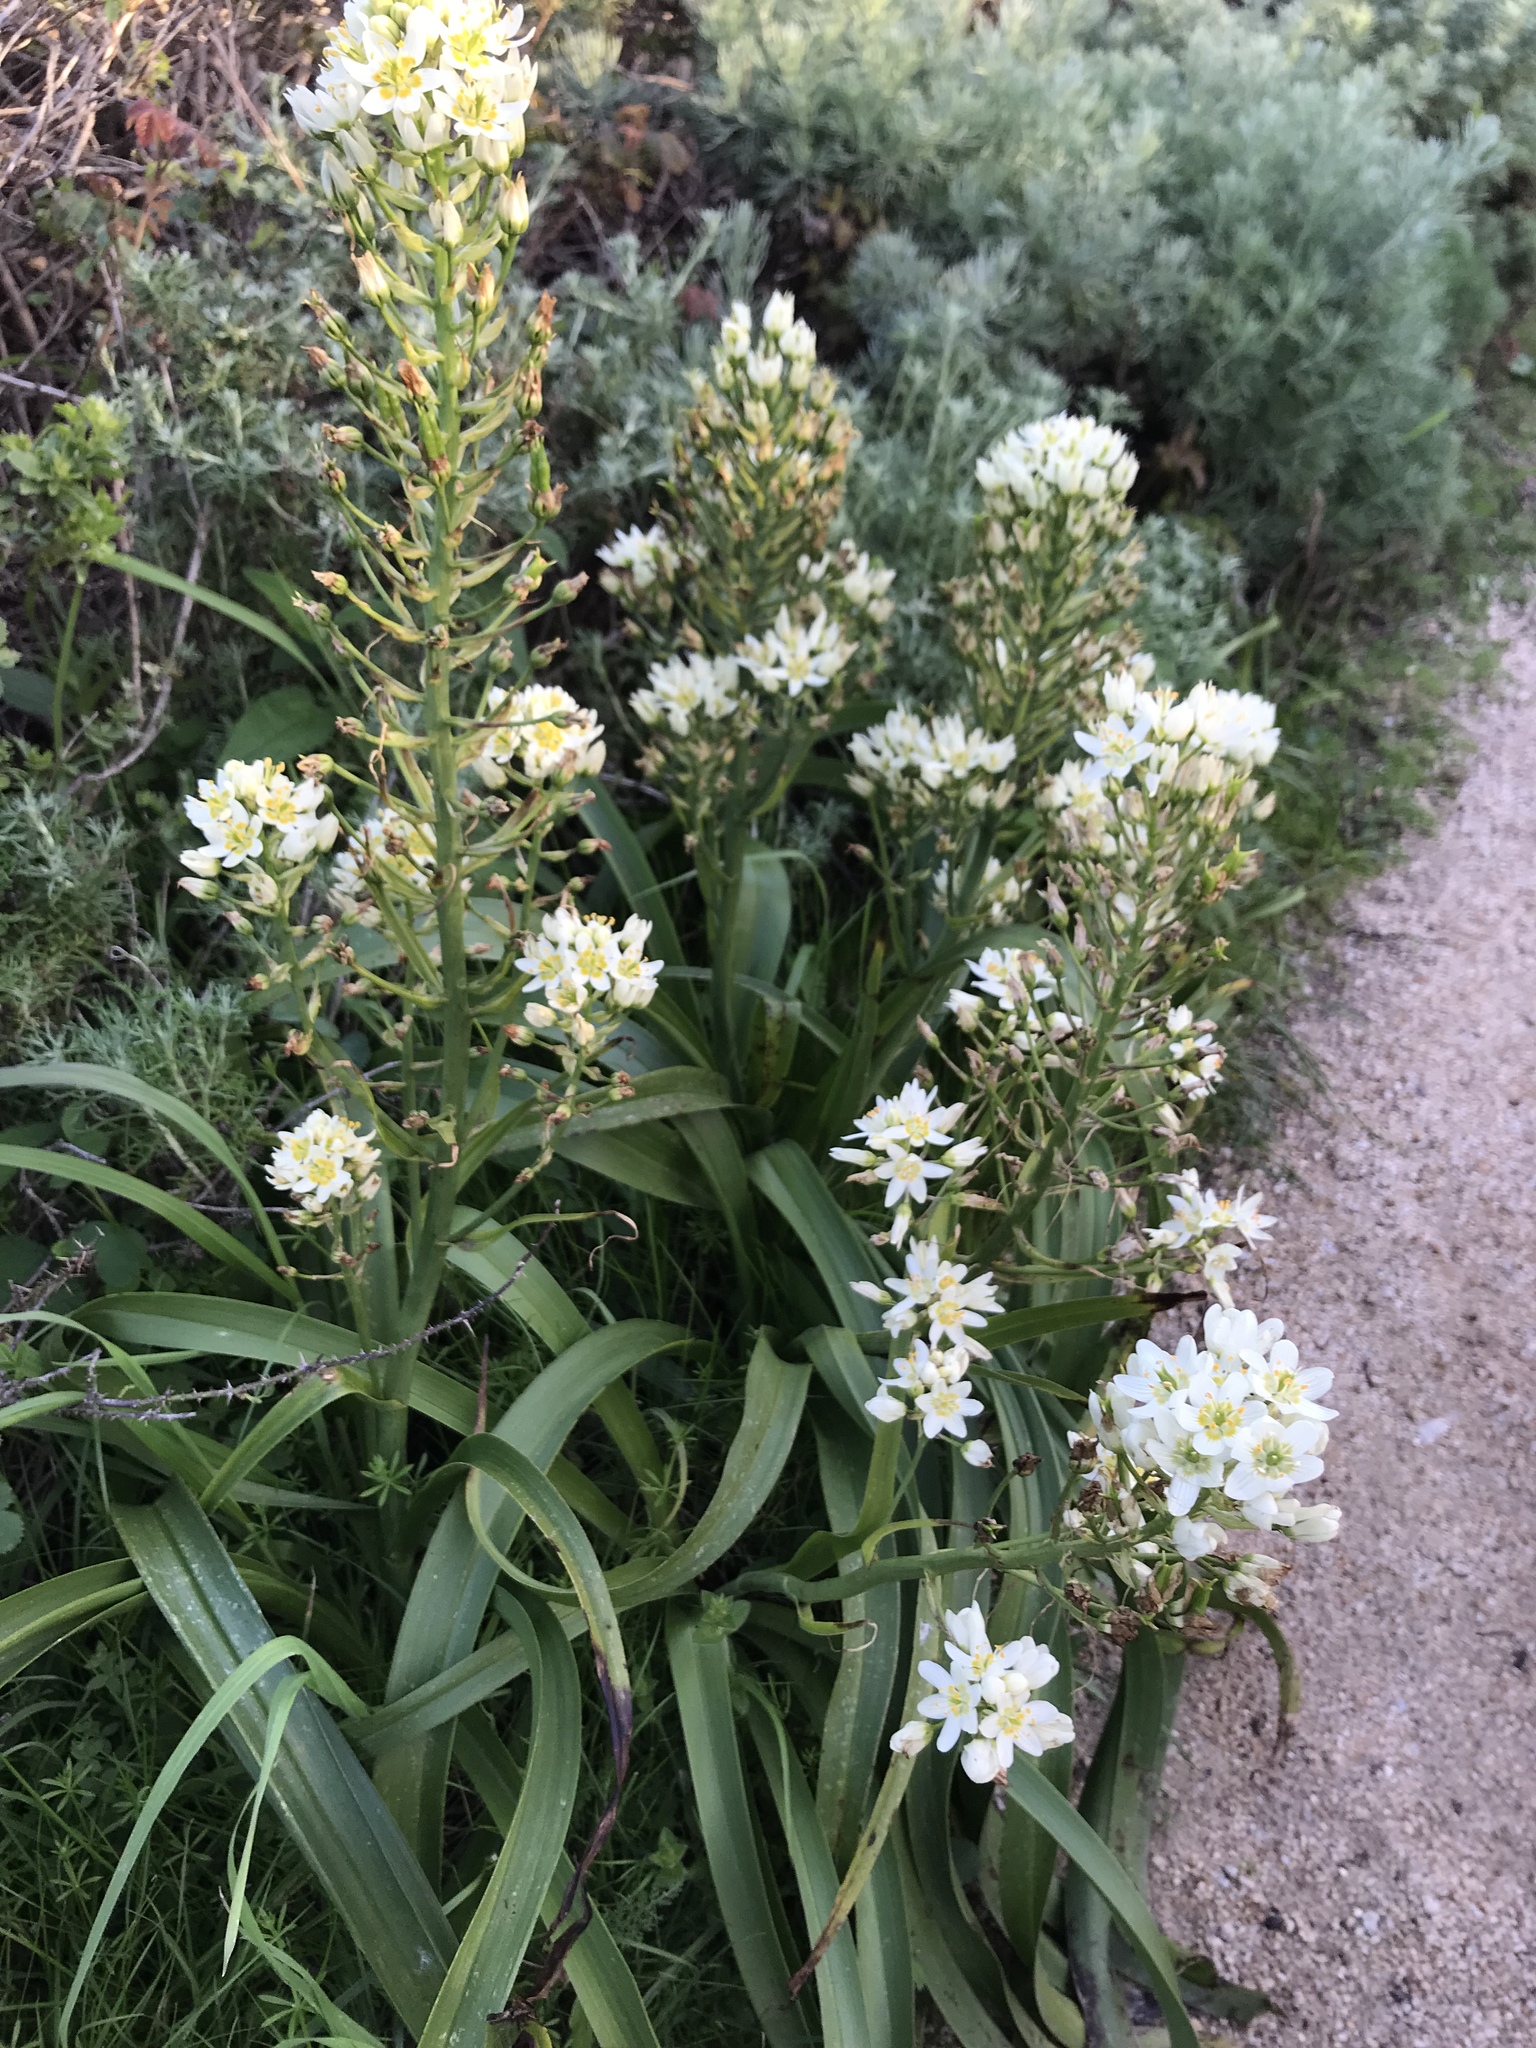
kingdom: Plantae
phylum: Tracheophyta
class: Liliopsida
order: Liliales
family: Melanthiaceae
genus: Toxicoscordion
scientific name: Toxicoscordion fremontii
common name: Fremont's death camas
